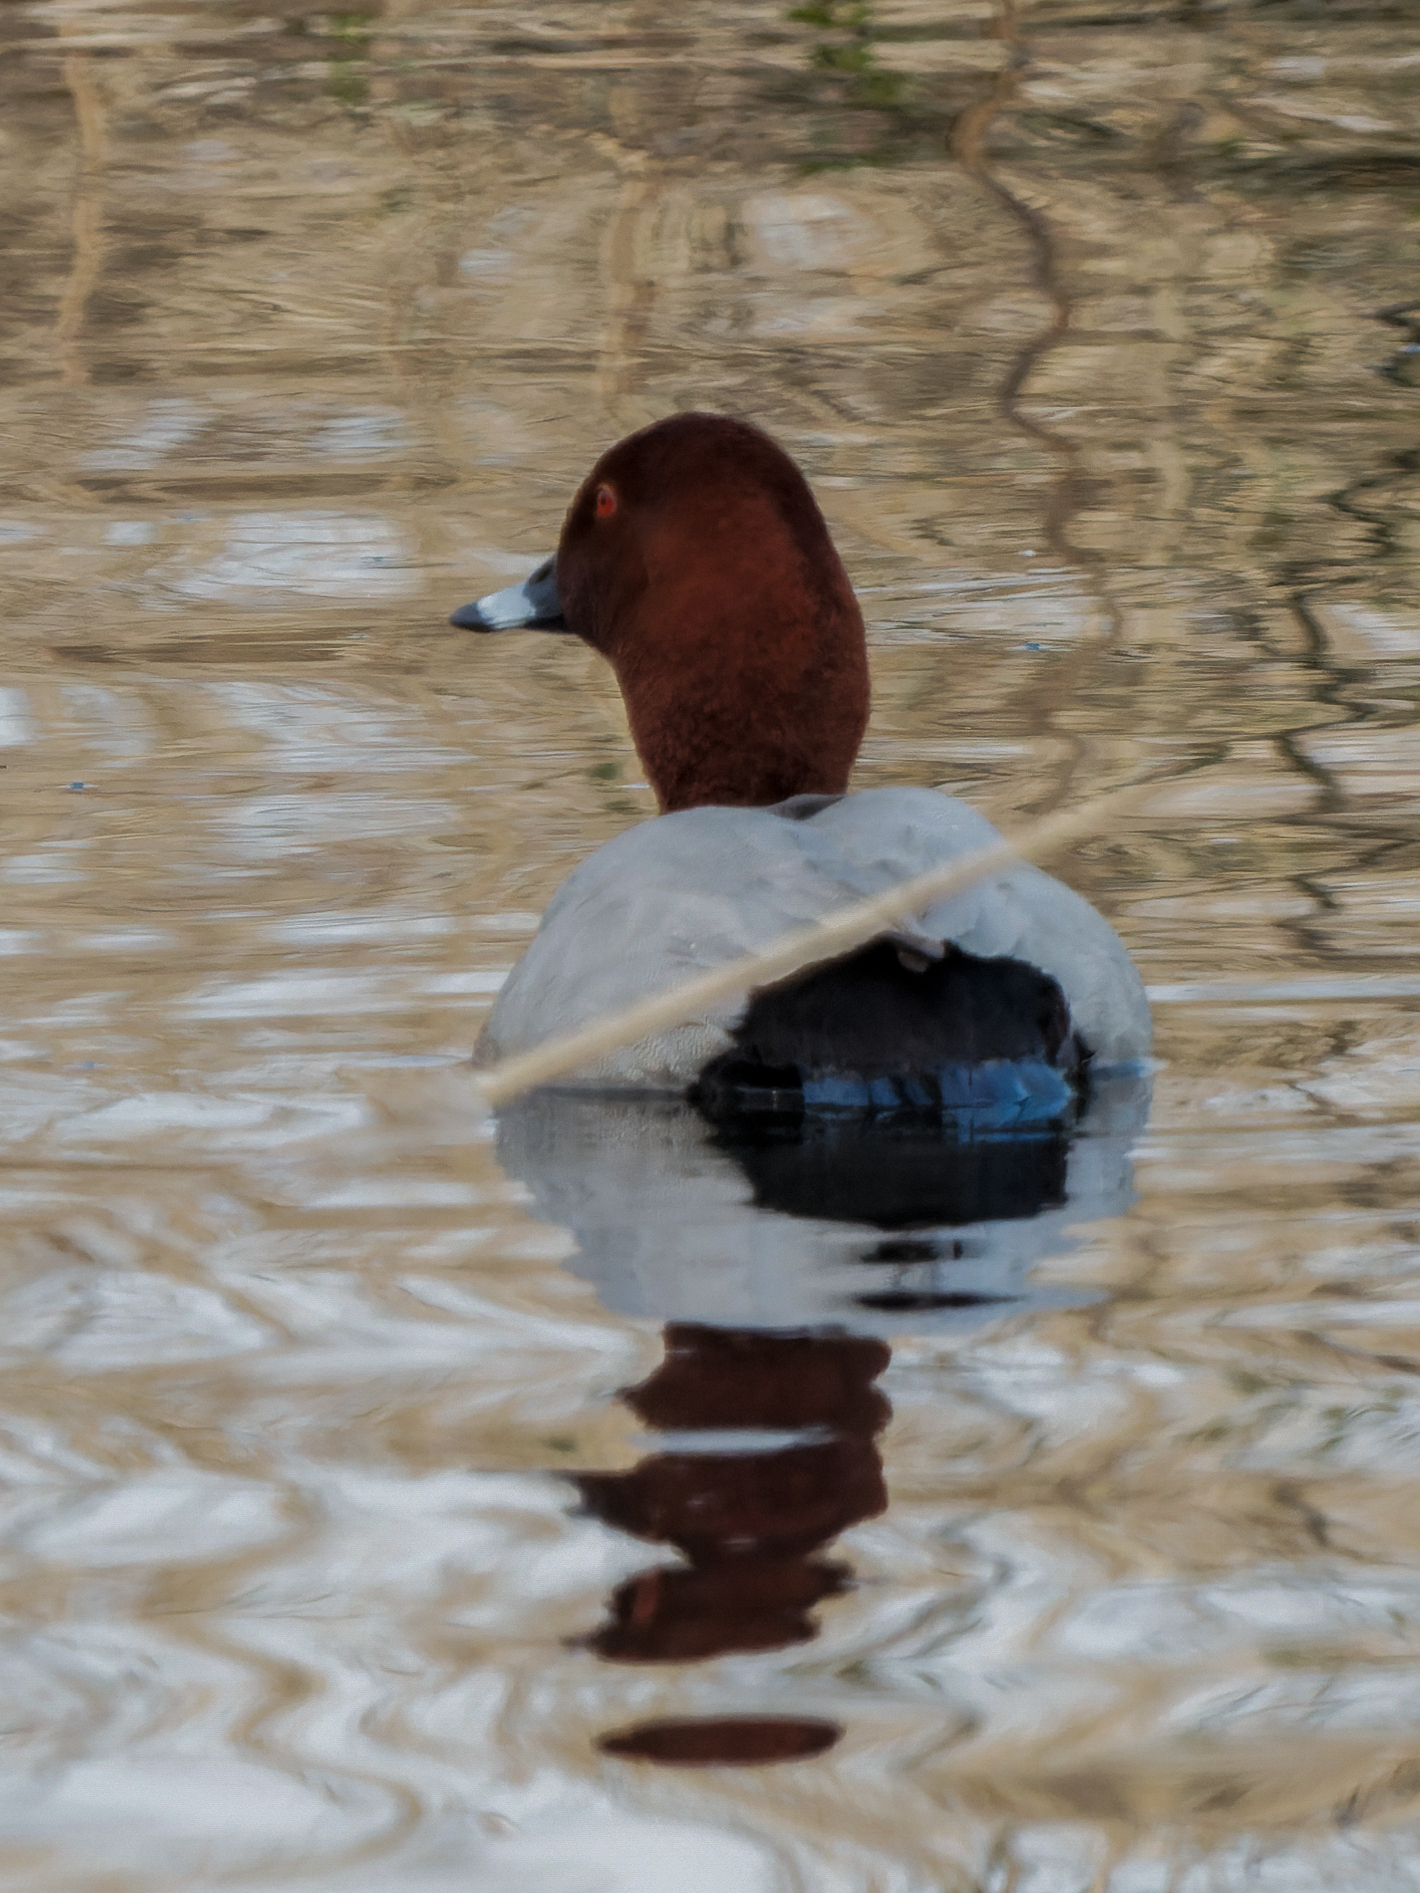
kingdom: Animalia
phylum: Chordata
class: Aves
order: Anseriformes
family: Anatidae
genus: Aythya
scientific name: Aythya ferina
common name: Common pochard
